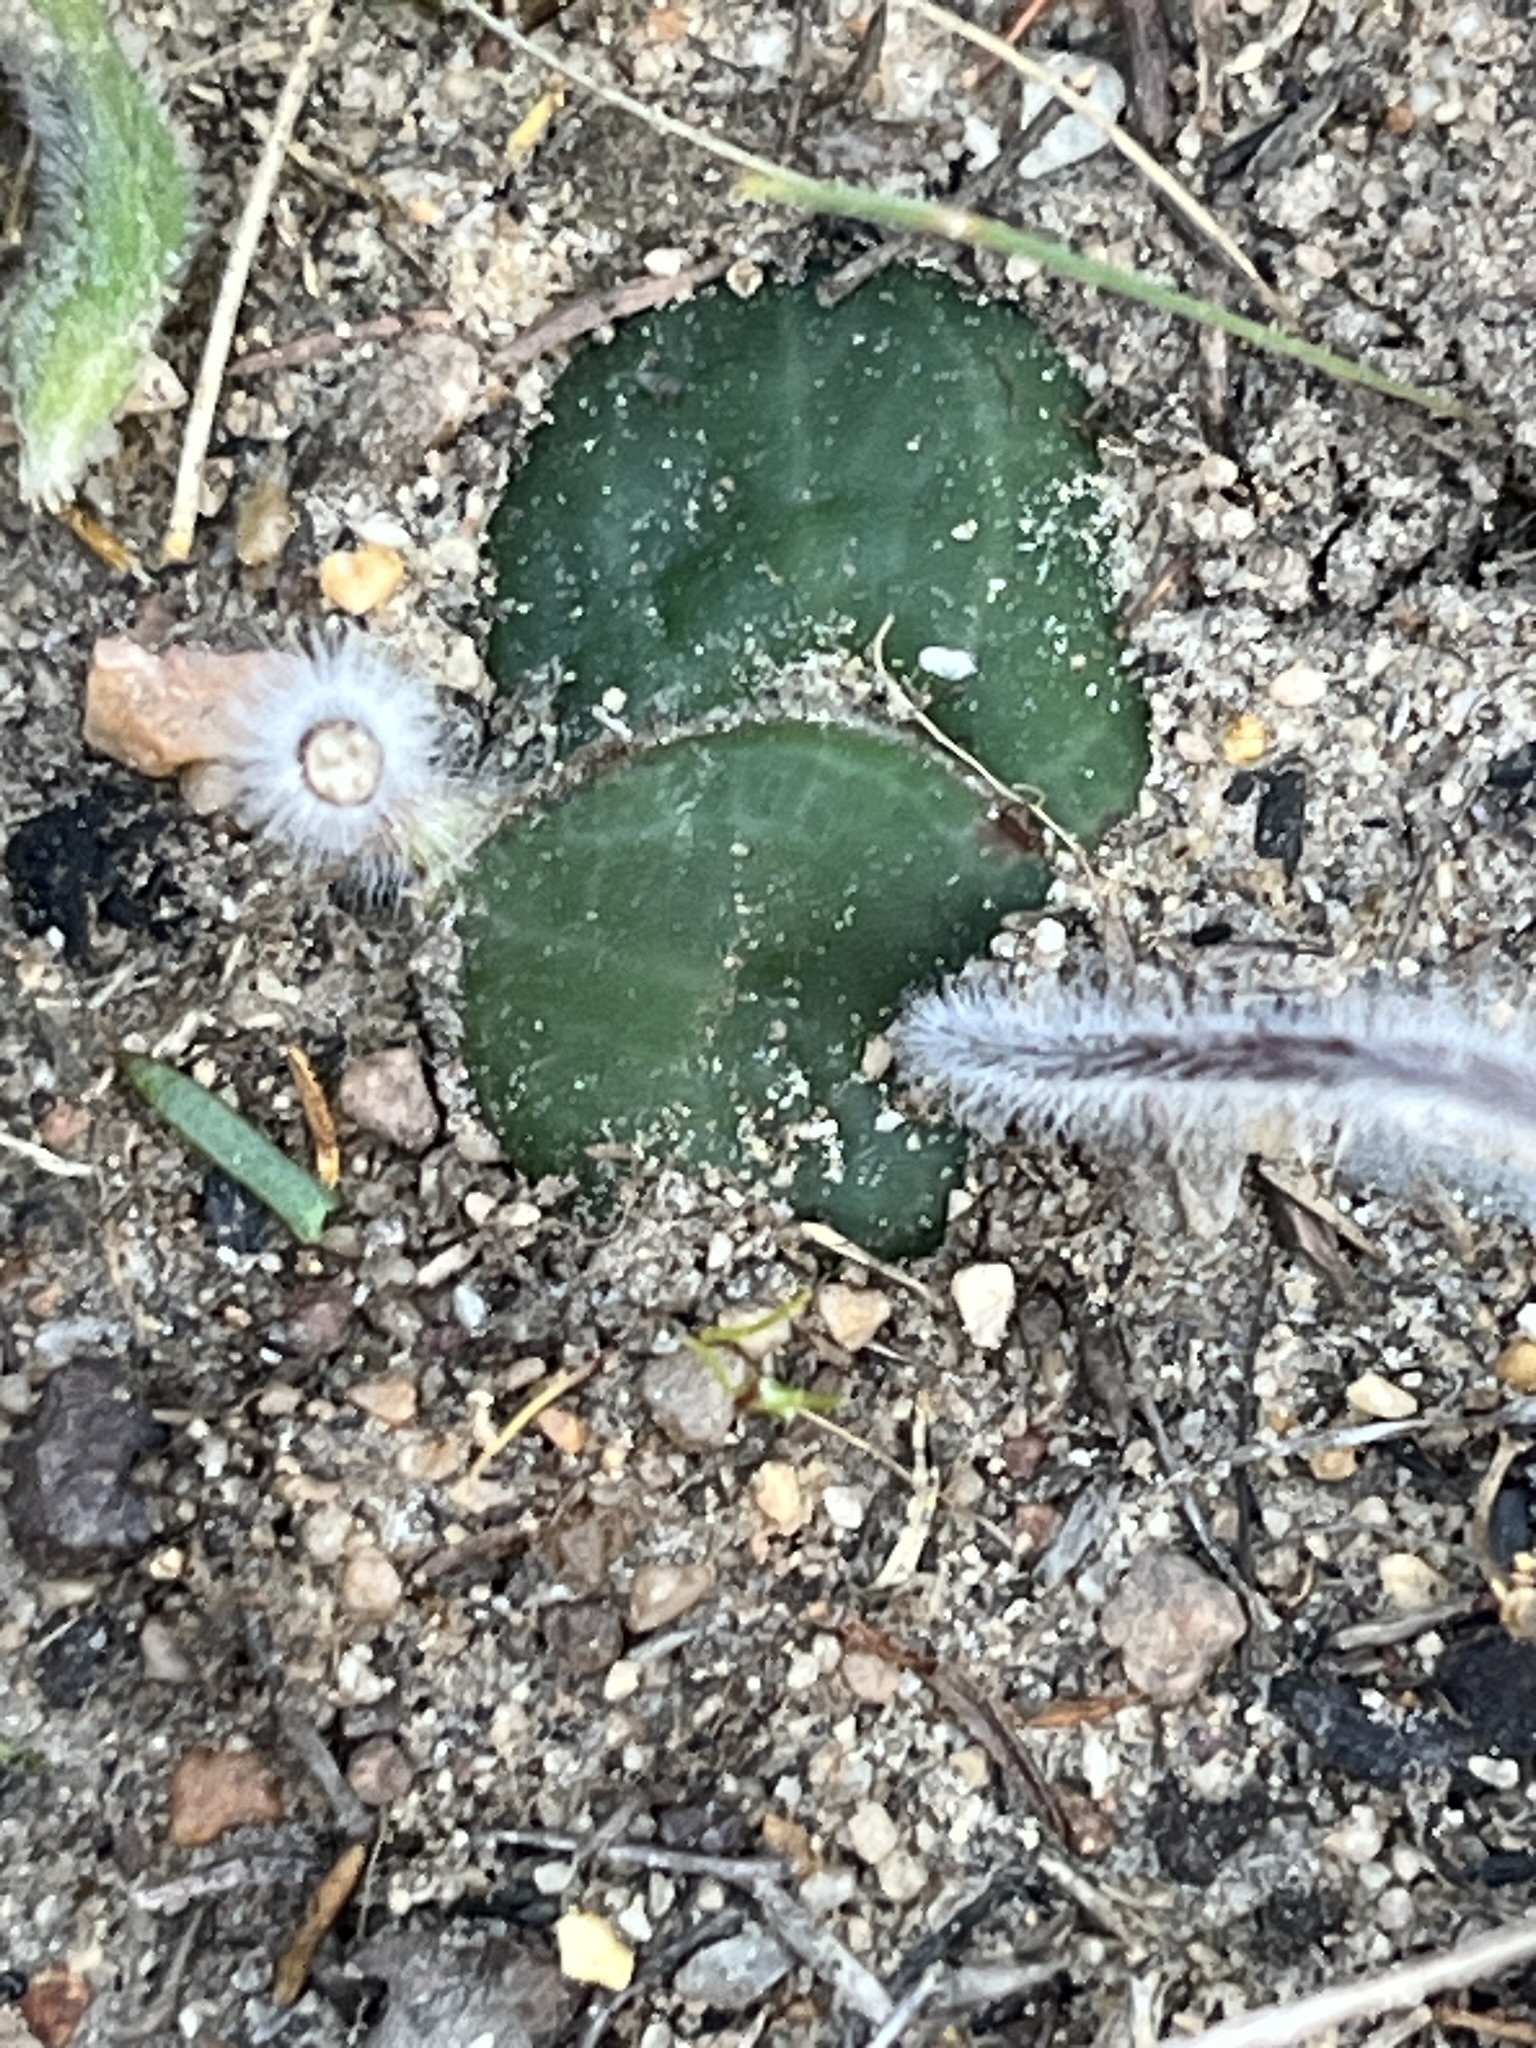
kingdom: Plantae
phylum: Tracheophyta
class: Liliopsida
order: Asparagales
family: Orchidaceae
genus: Holothrix
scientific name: Holothrix burmanniana
